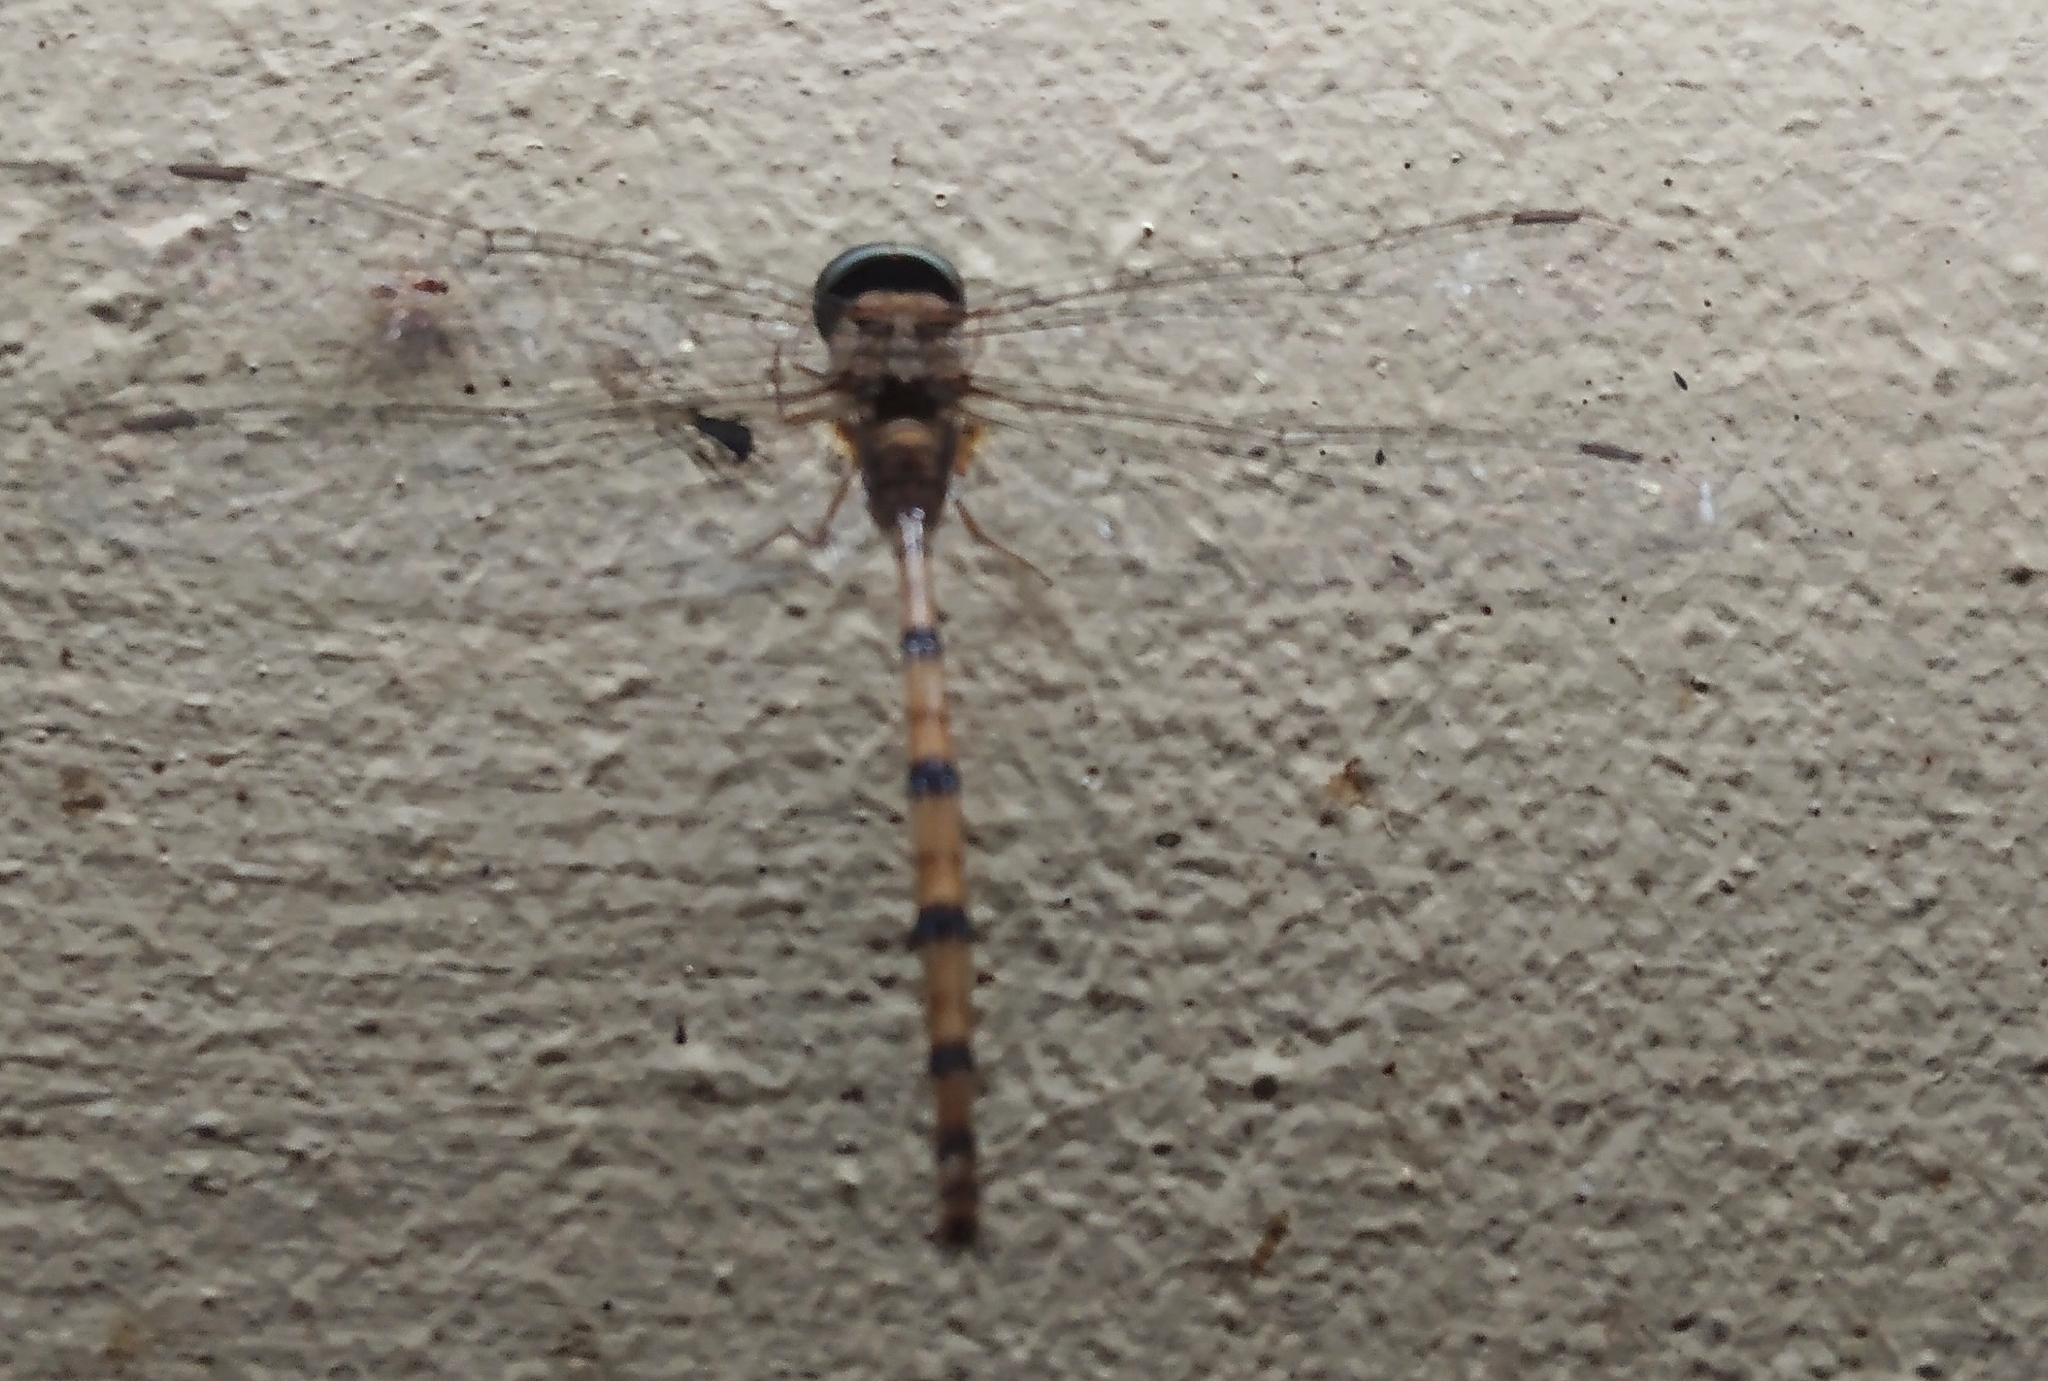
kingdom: Animalia
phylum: Arthropoda
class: Insecta
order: Odonata
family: Libellulidae
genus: Zyxomma
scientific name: Zyxomma petiolatum
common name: Dingy dusk-darter
